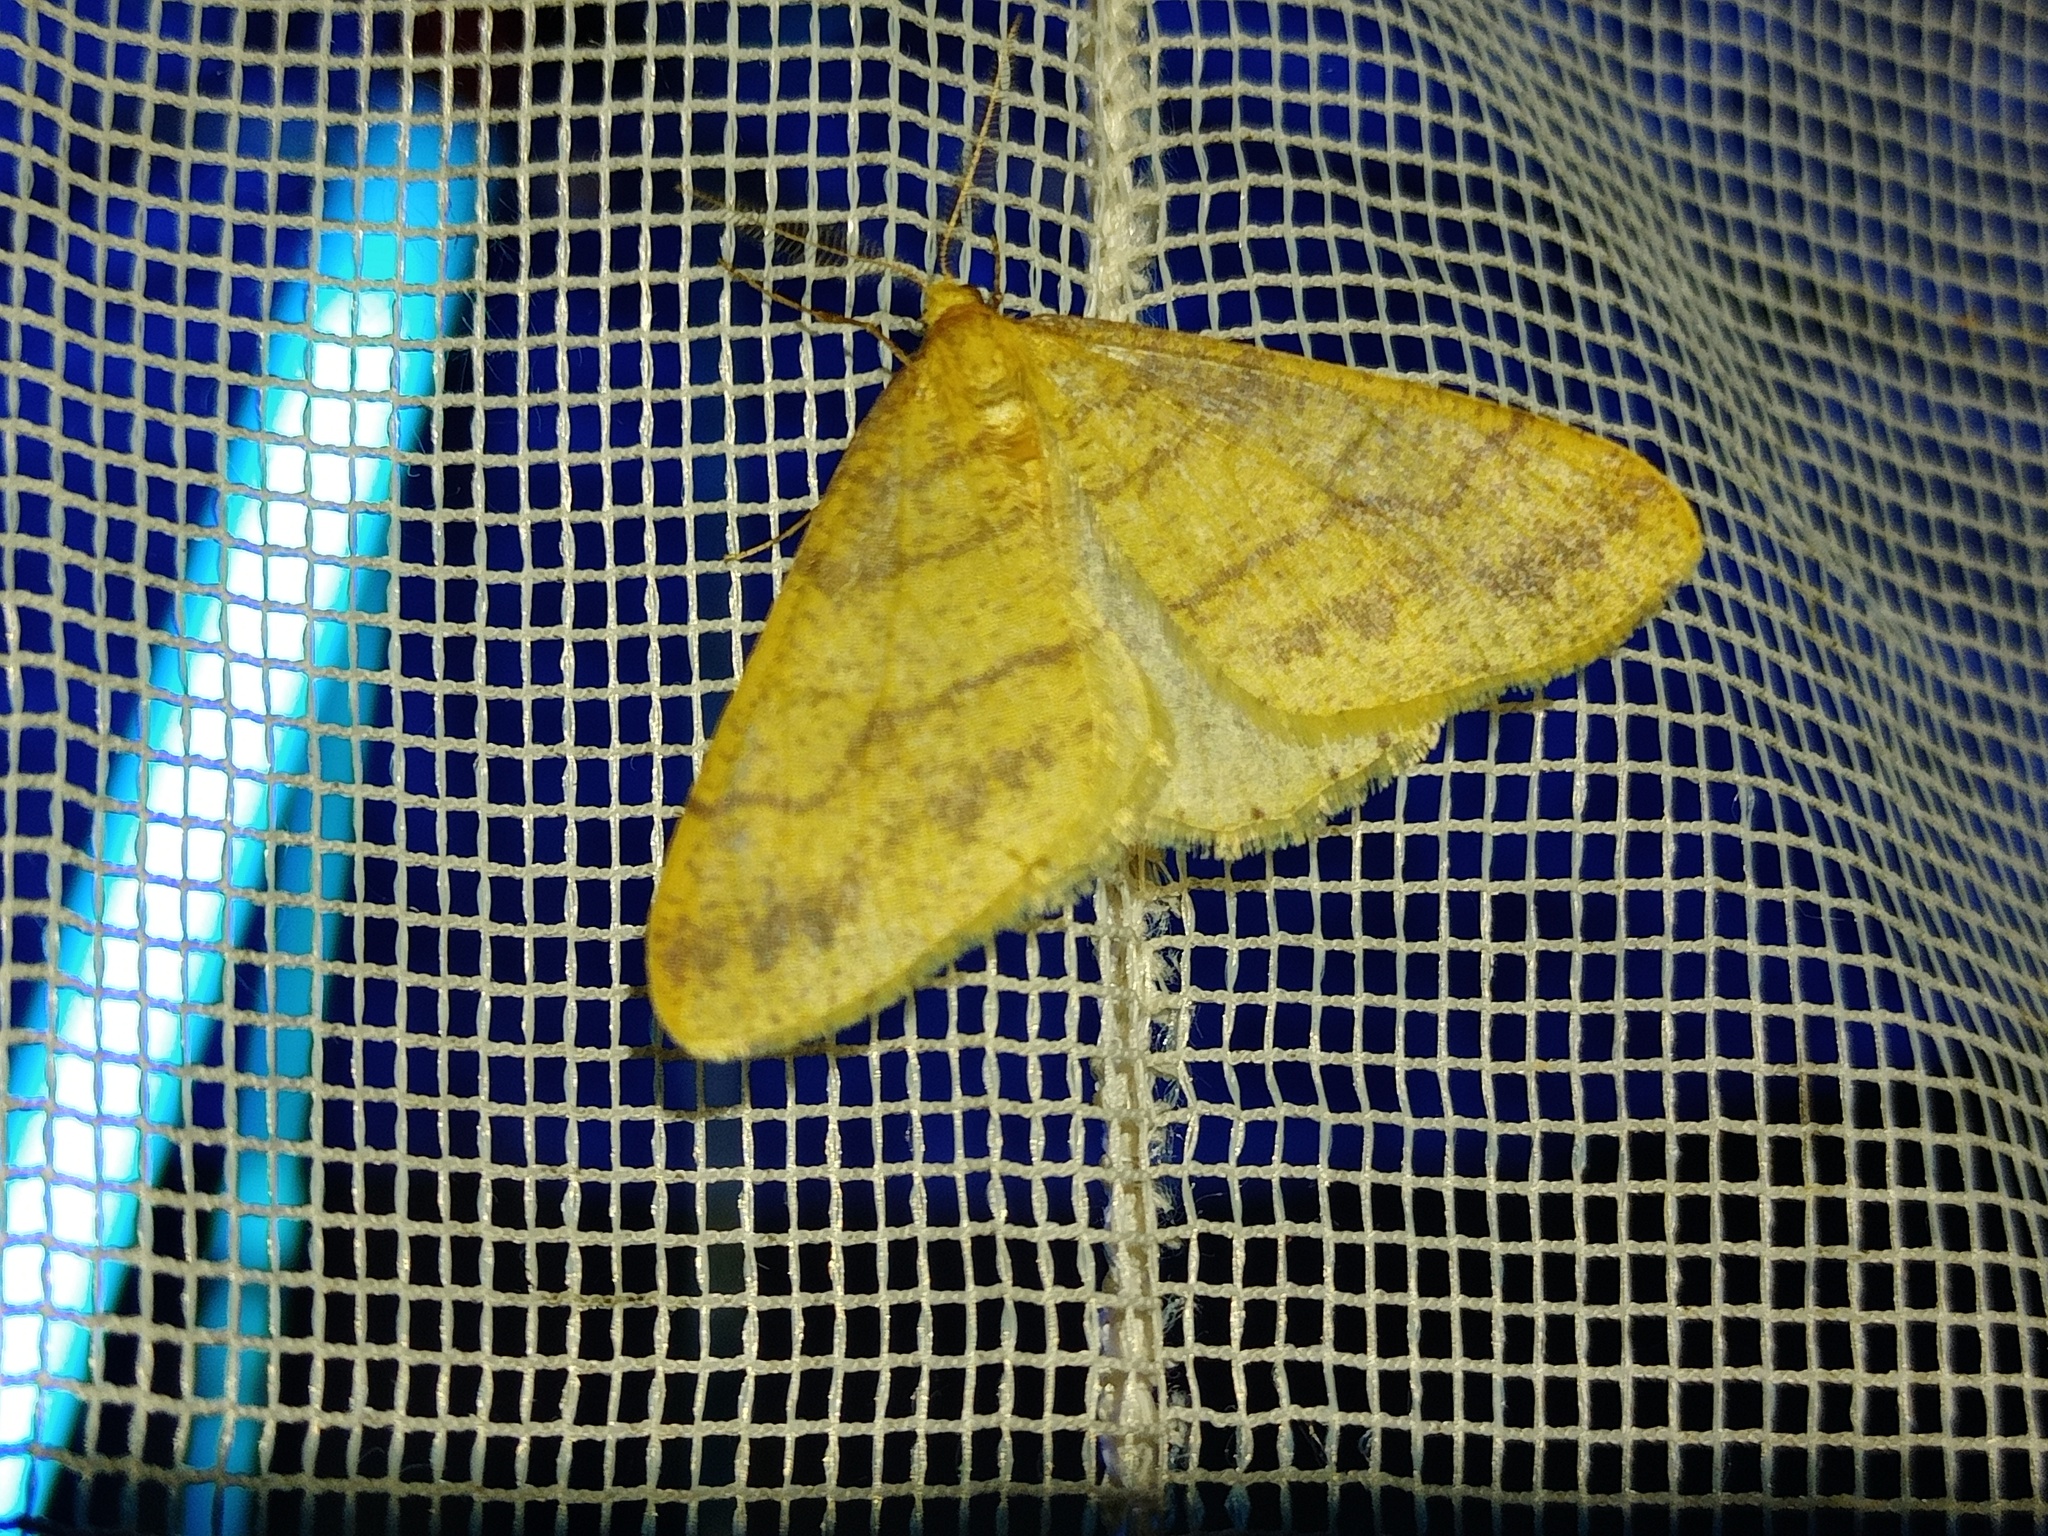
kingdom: Animalia
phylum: Arthropoda
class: Insecta
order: Lepidoptera
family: Geometridae
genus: Agriopis
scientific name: Agriopis aurantiaria
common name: Scarce umber
